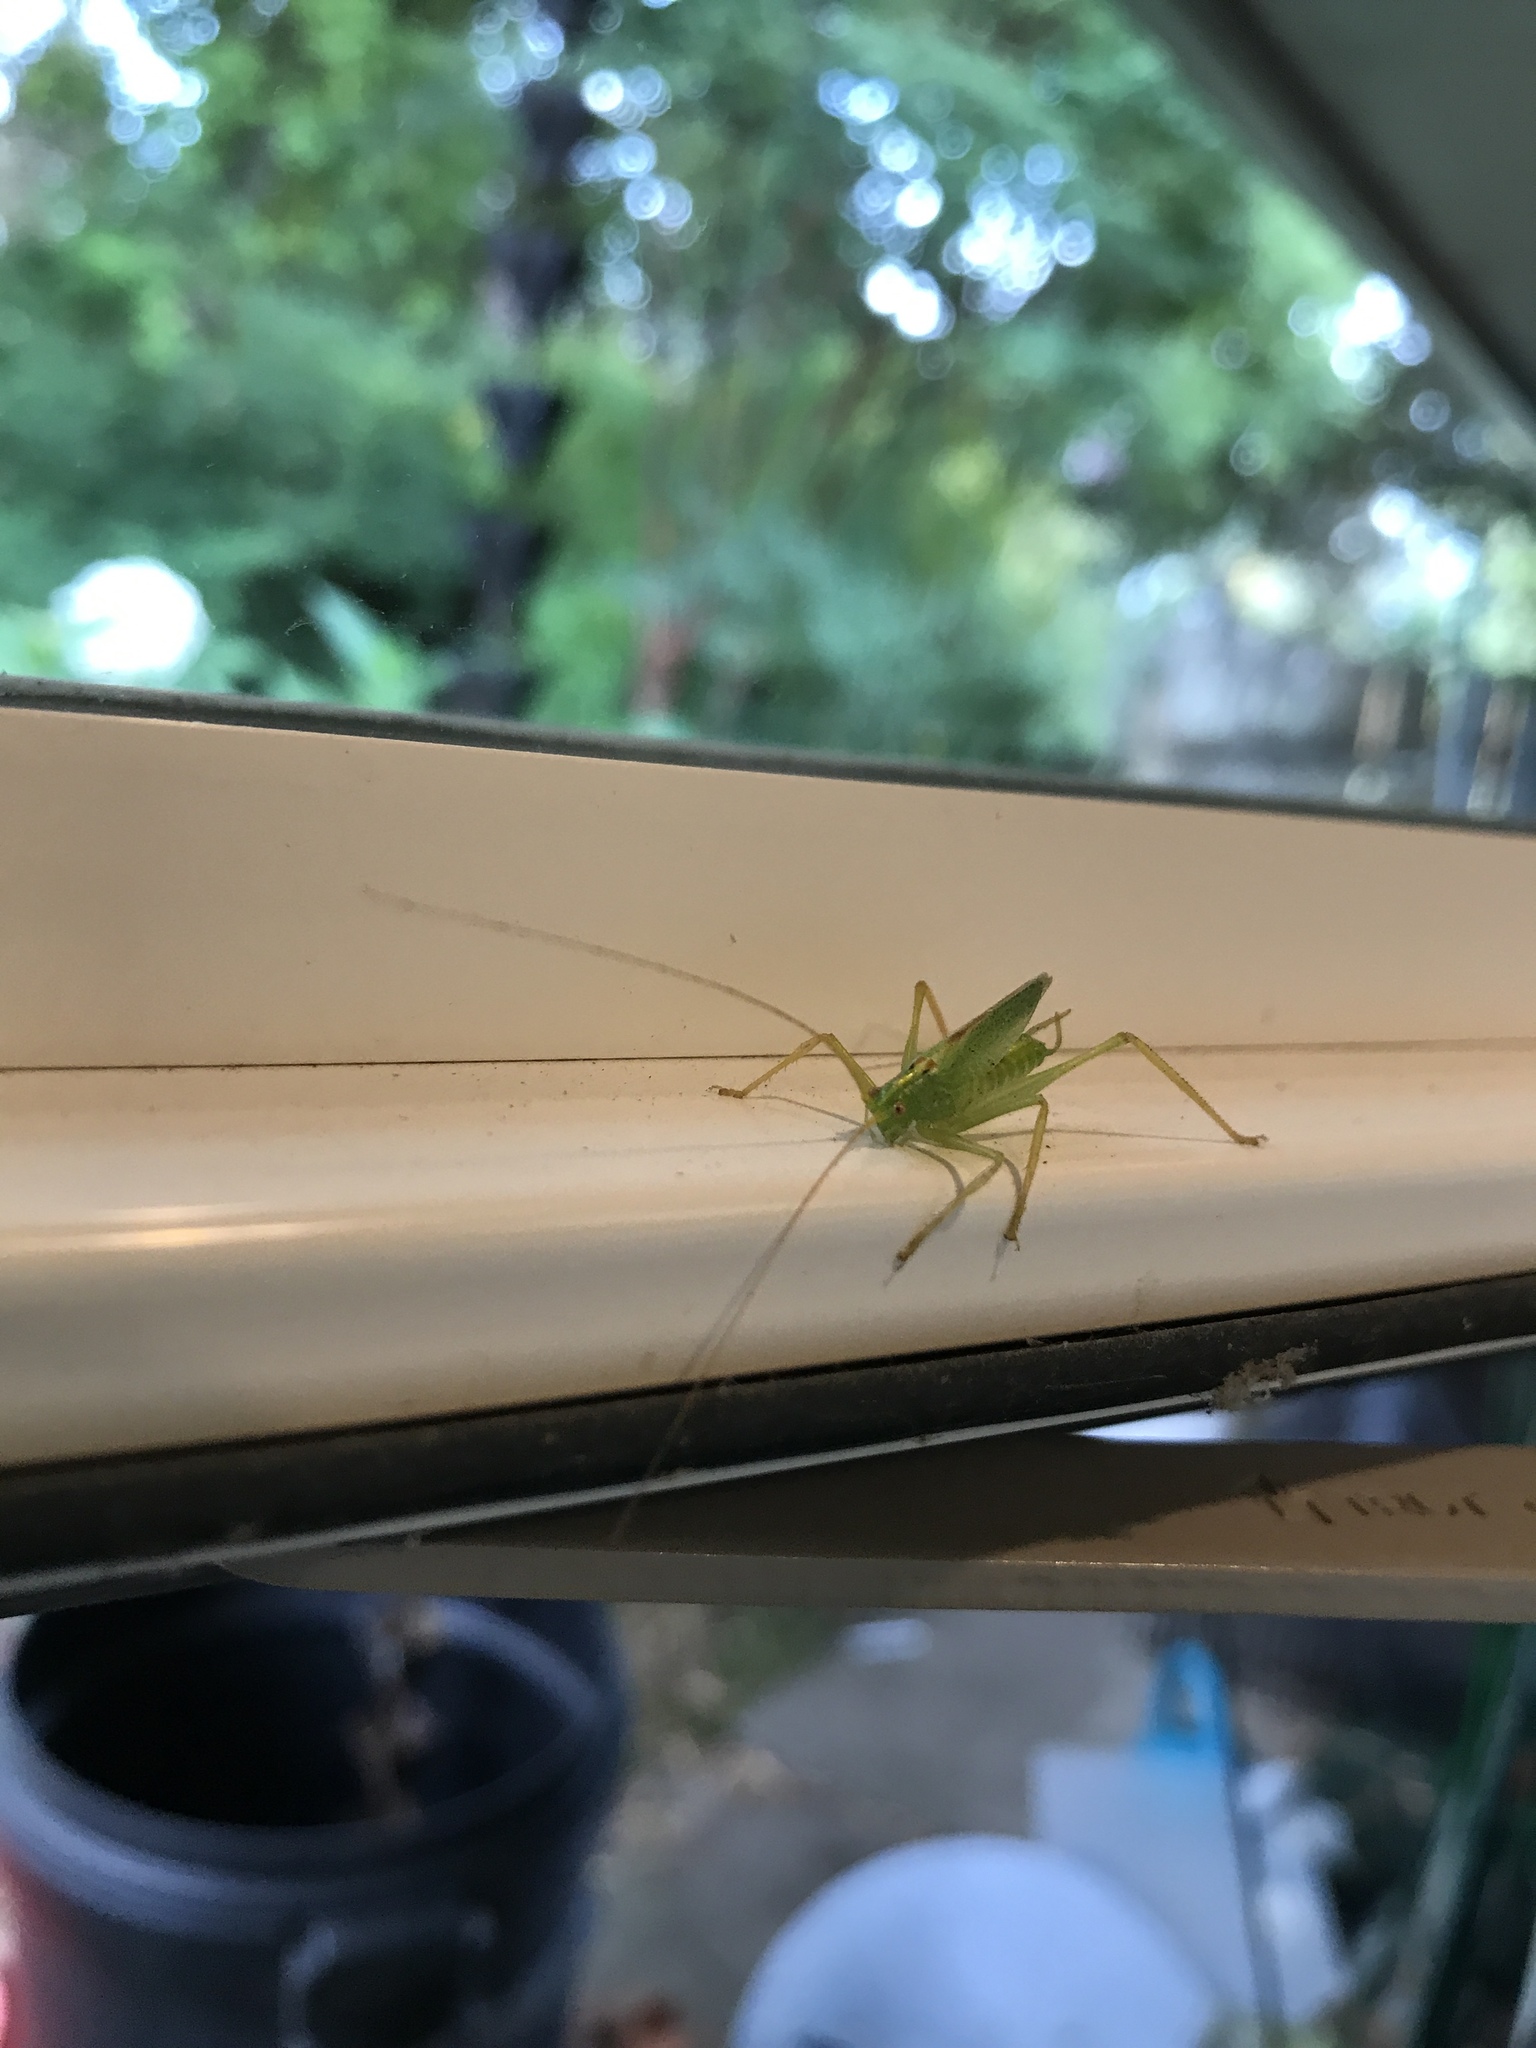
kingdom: Animalia
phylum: Arthropoda
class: Insecta
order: Orthoptera
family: Tettigoniidae
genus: Meconema
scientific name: Meconema thalassinum
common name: Oak bush-cricket
